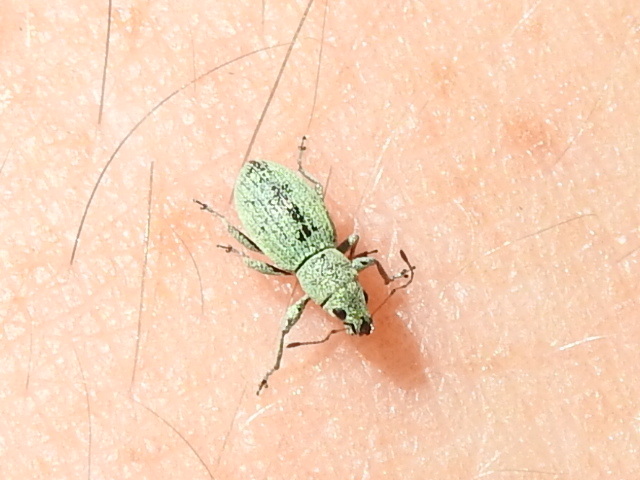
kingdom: Animalia
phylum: Arthropoda
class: Insecta
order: Coleoptera
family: Curculionidae
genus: Mitostylus
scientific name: Mitostylus tenuis
